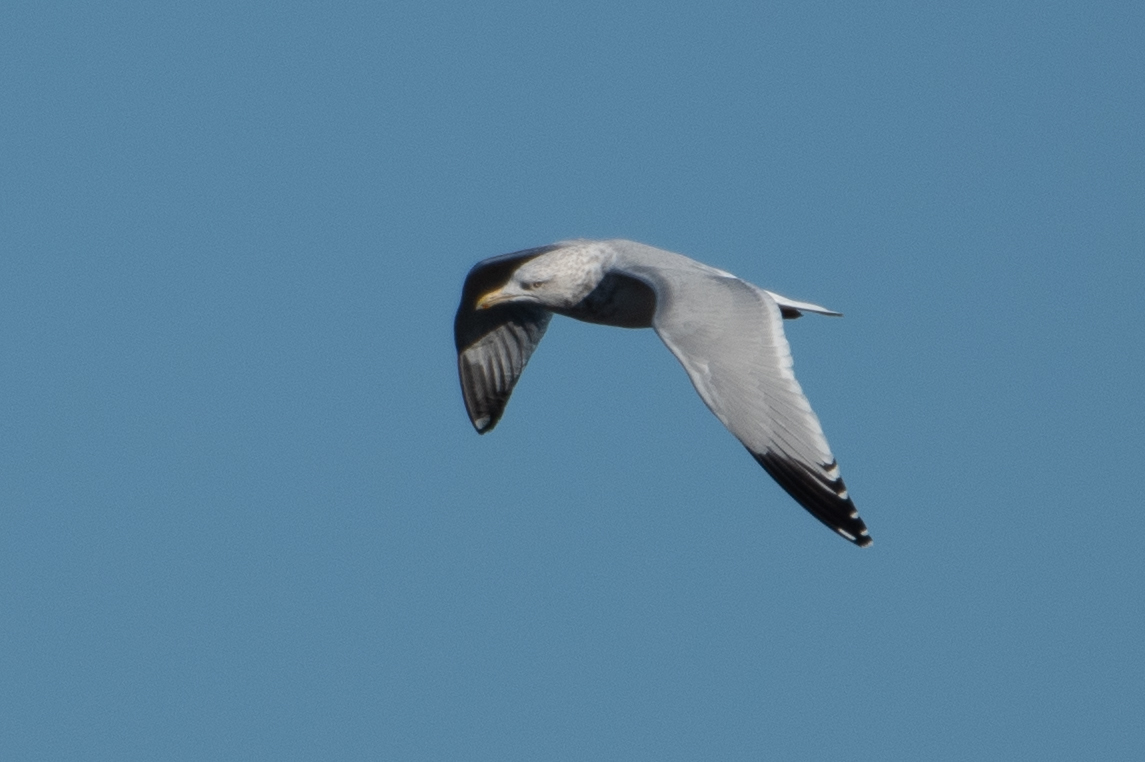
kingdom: Animalia
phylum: Chordata
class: Aves
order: Charadriiformes
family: Laridae
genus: Larus
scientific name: Larus argentatus
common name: Herring gull
